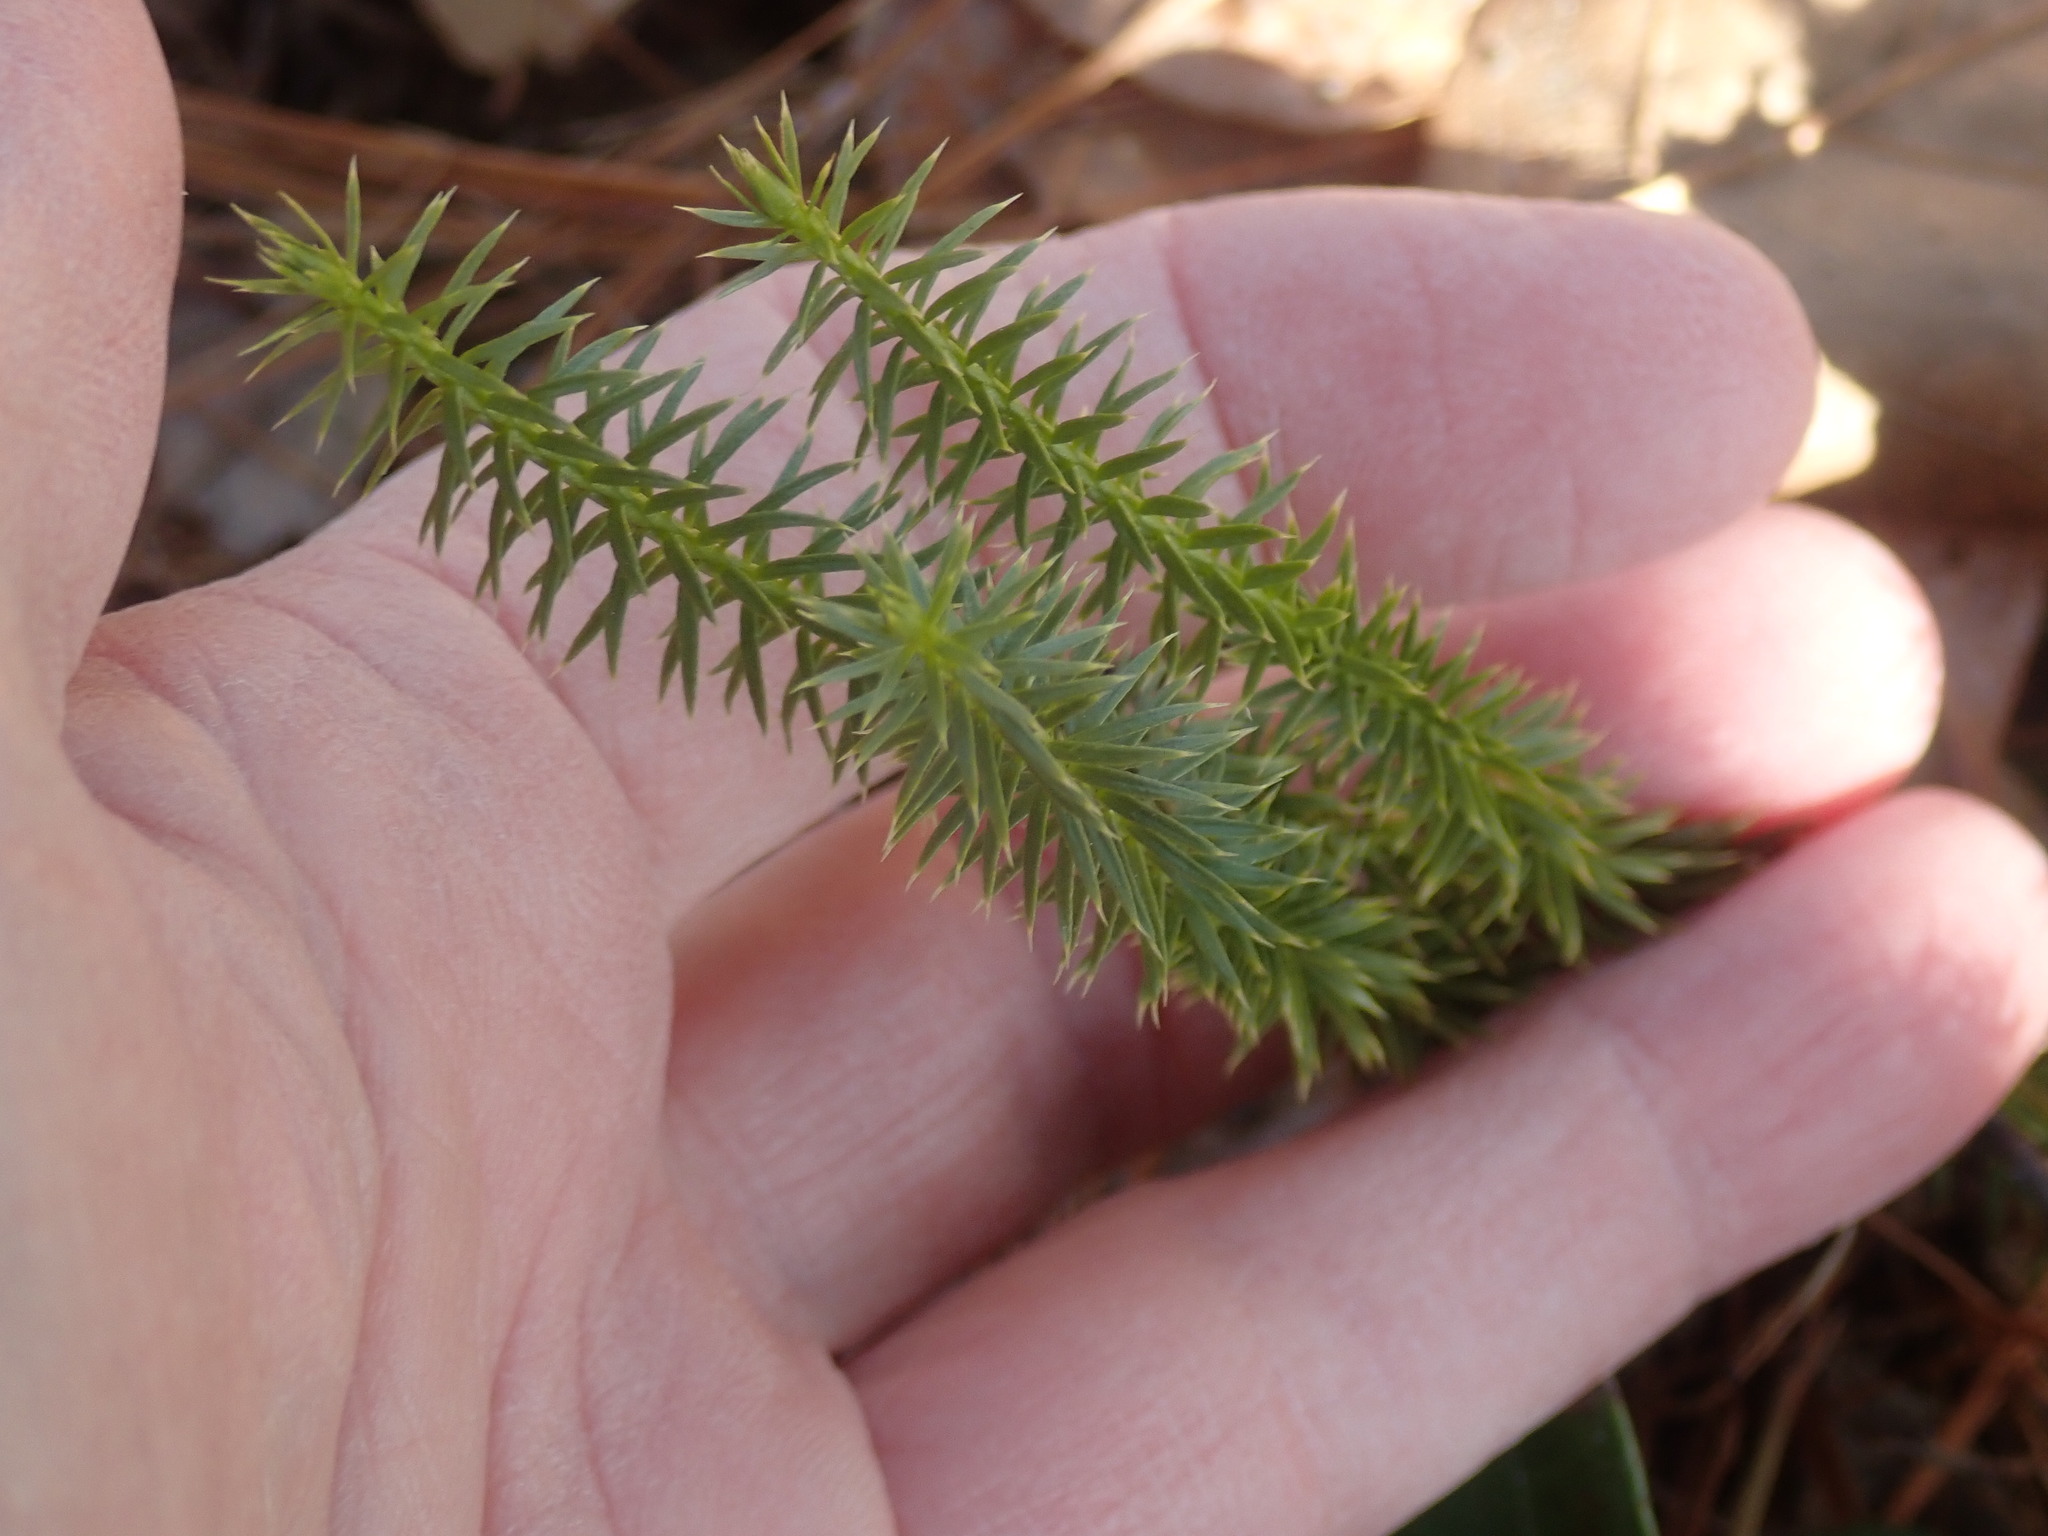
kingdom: Plantae
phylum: Tracheophyta
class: Lycopodiopsida
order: Lycopodiales
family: Lycopodiaceae
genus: Spinulum
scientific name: Spinulum annotinum
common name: Interrupted club-moss
